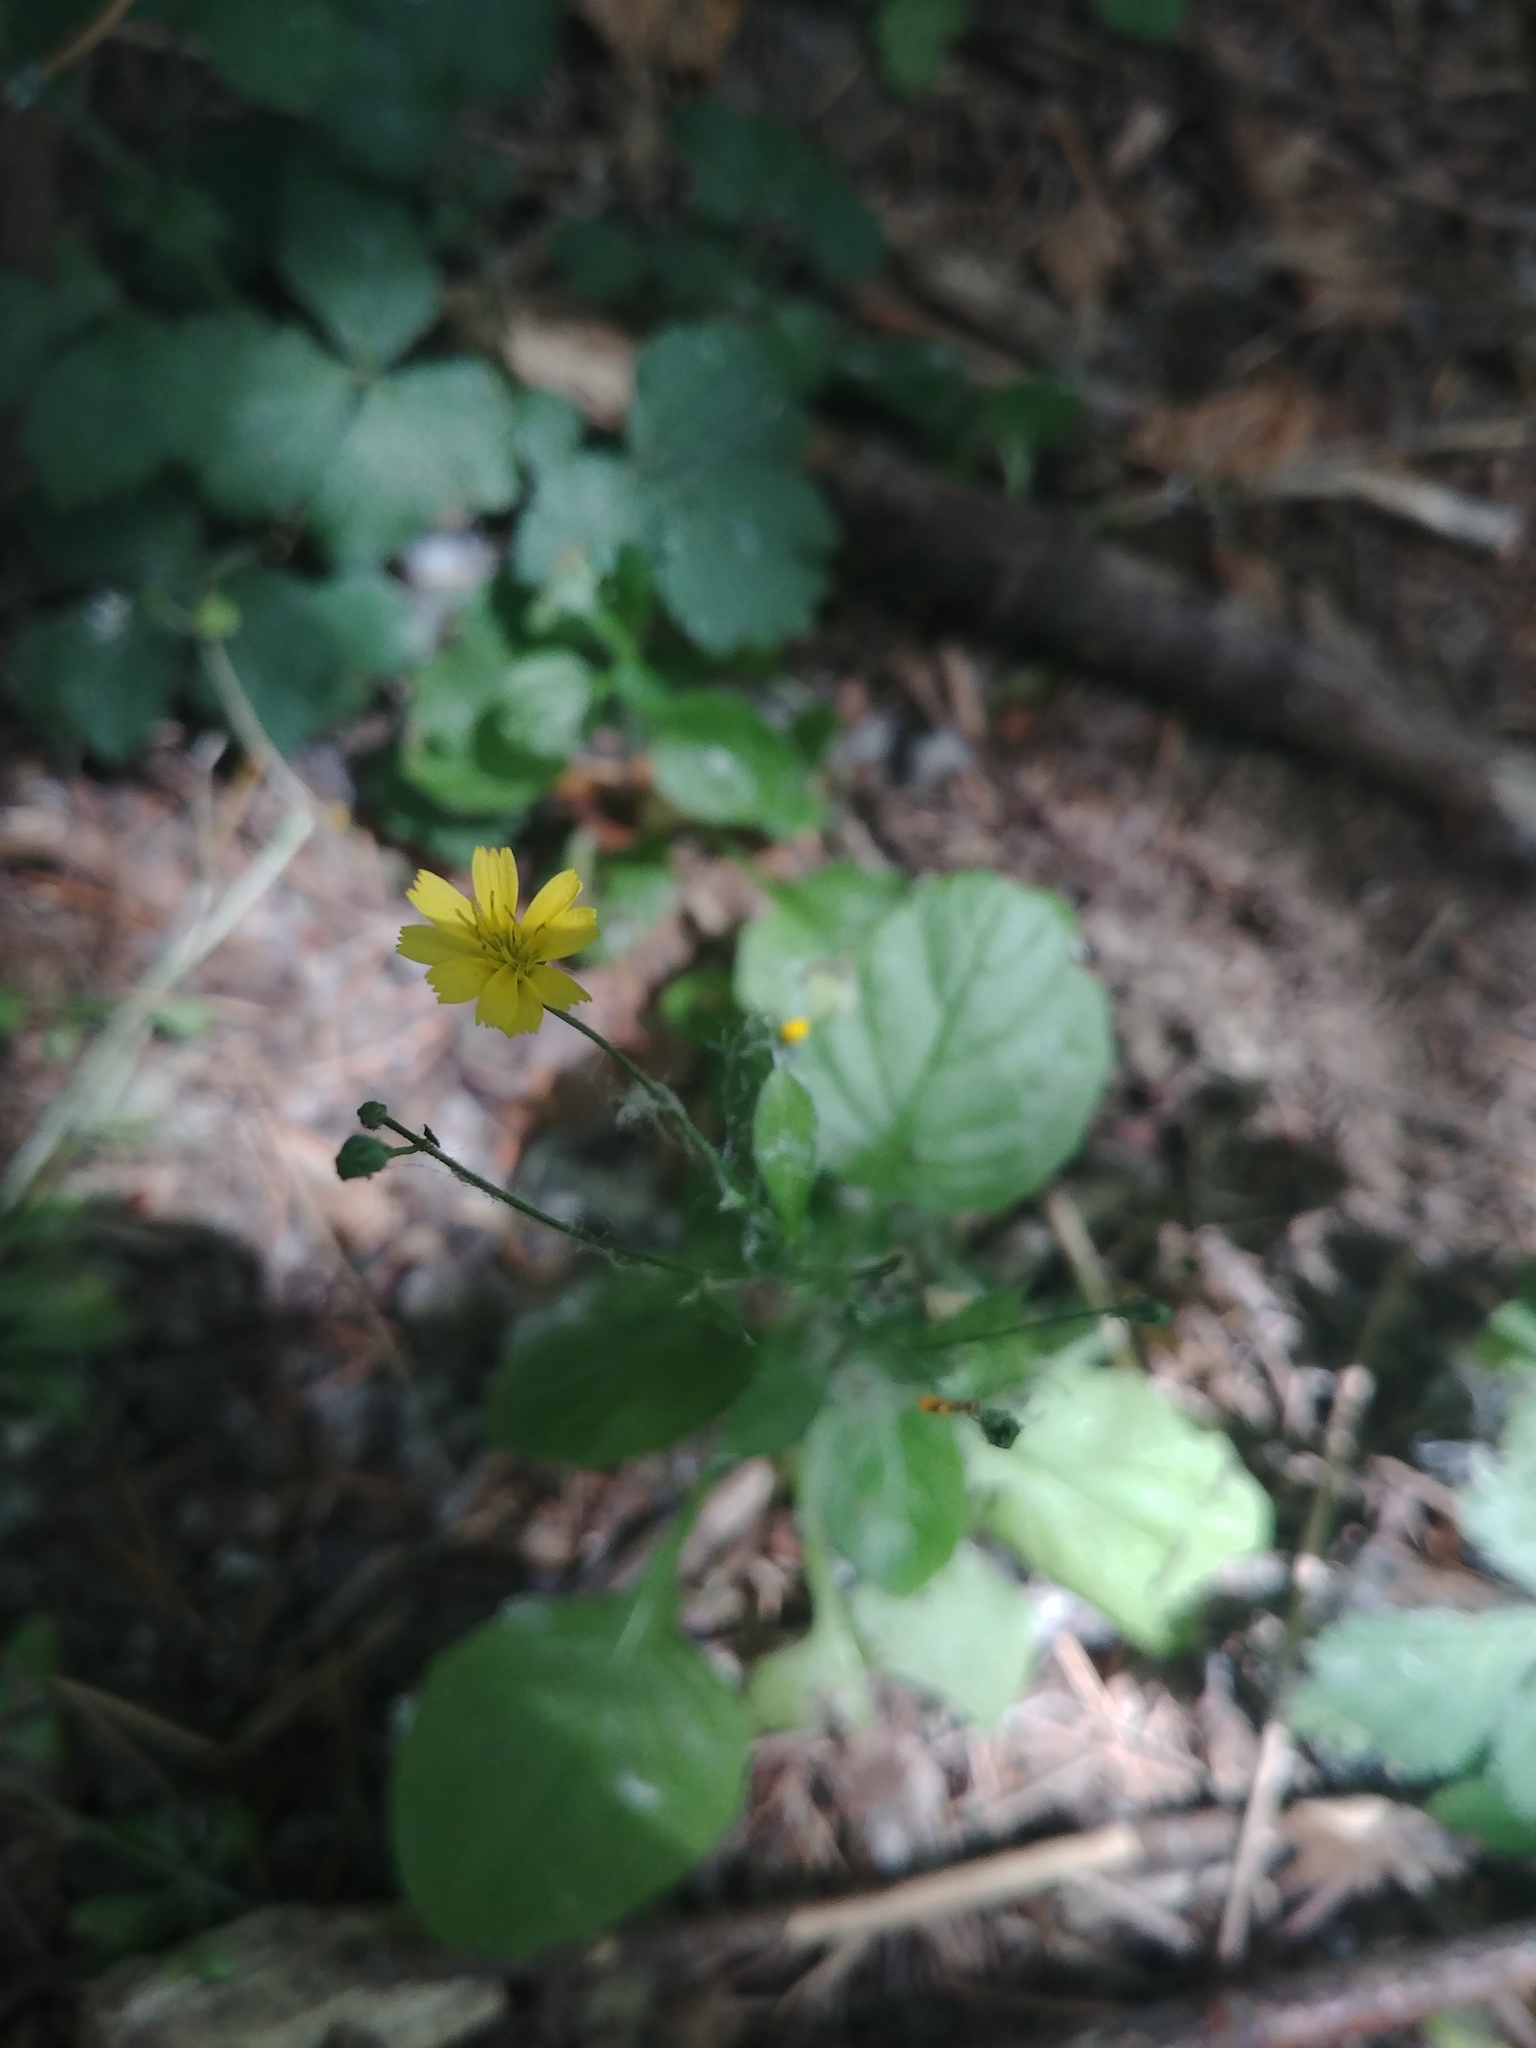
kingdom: Plantae
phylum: Tracheophyta
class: Magnoliopsida
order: Asterales
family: Asteraceae
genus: Lapsana
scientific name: Lapsana communis
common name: Nipplewort
